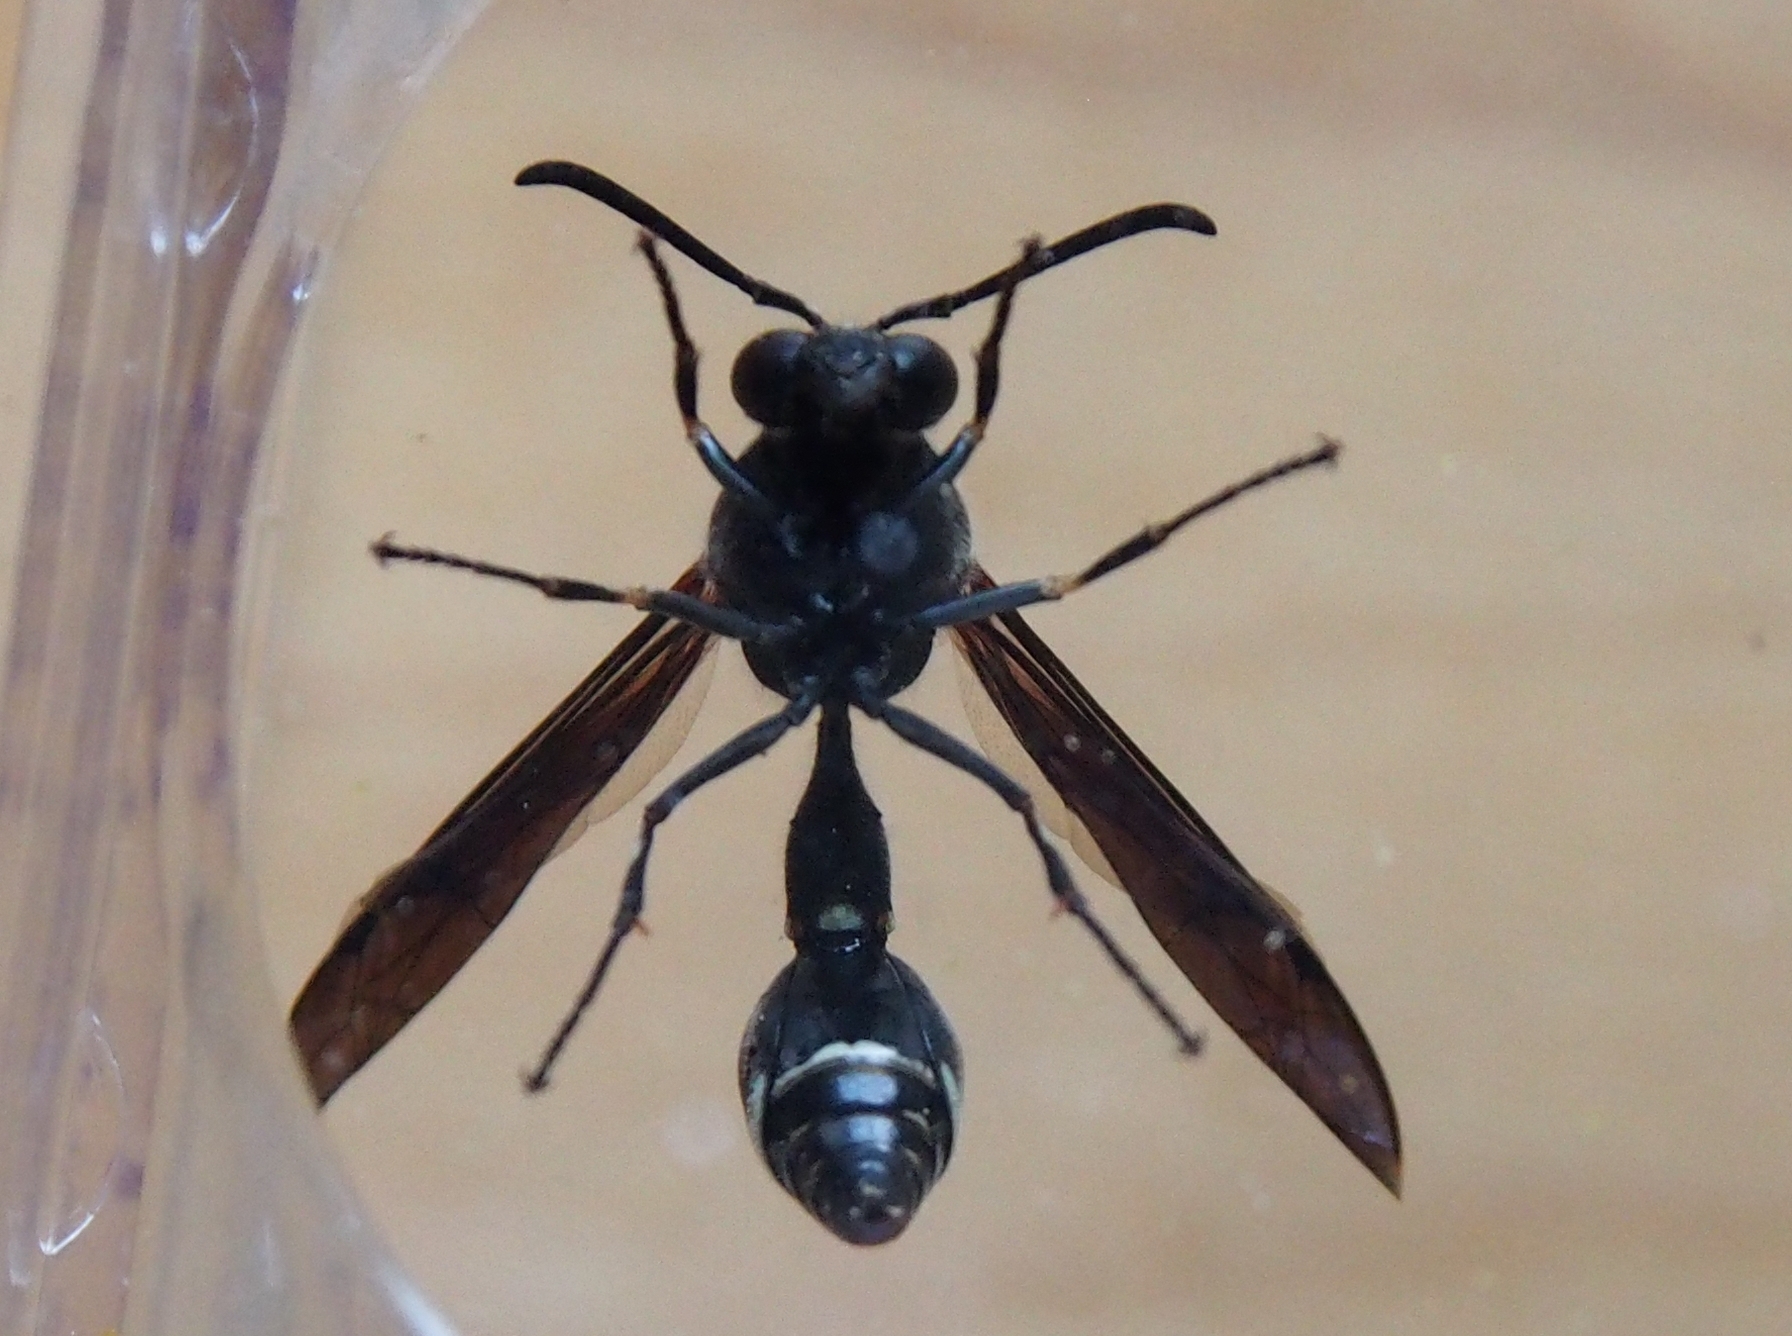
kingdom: Animalia
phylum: Arthropoda
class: Insecta
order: Hymenoptera
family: Vespidae
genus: Eumenes
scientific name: Eumenes fraternus
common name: Fraternal potter wasp
